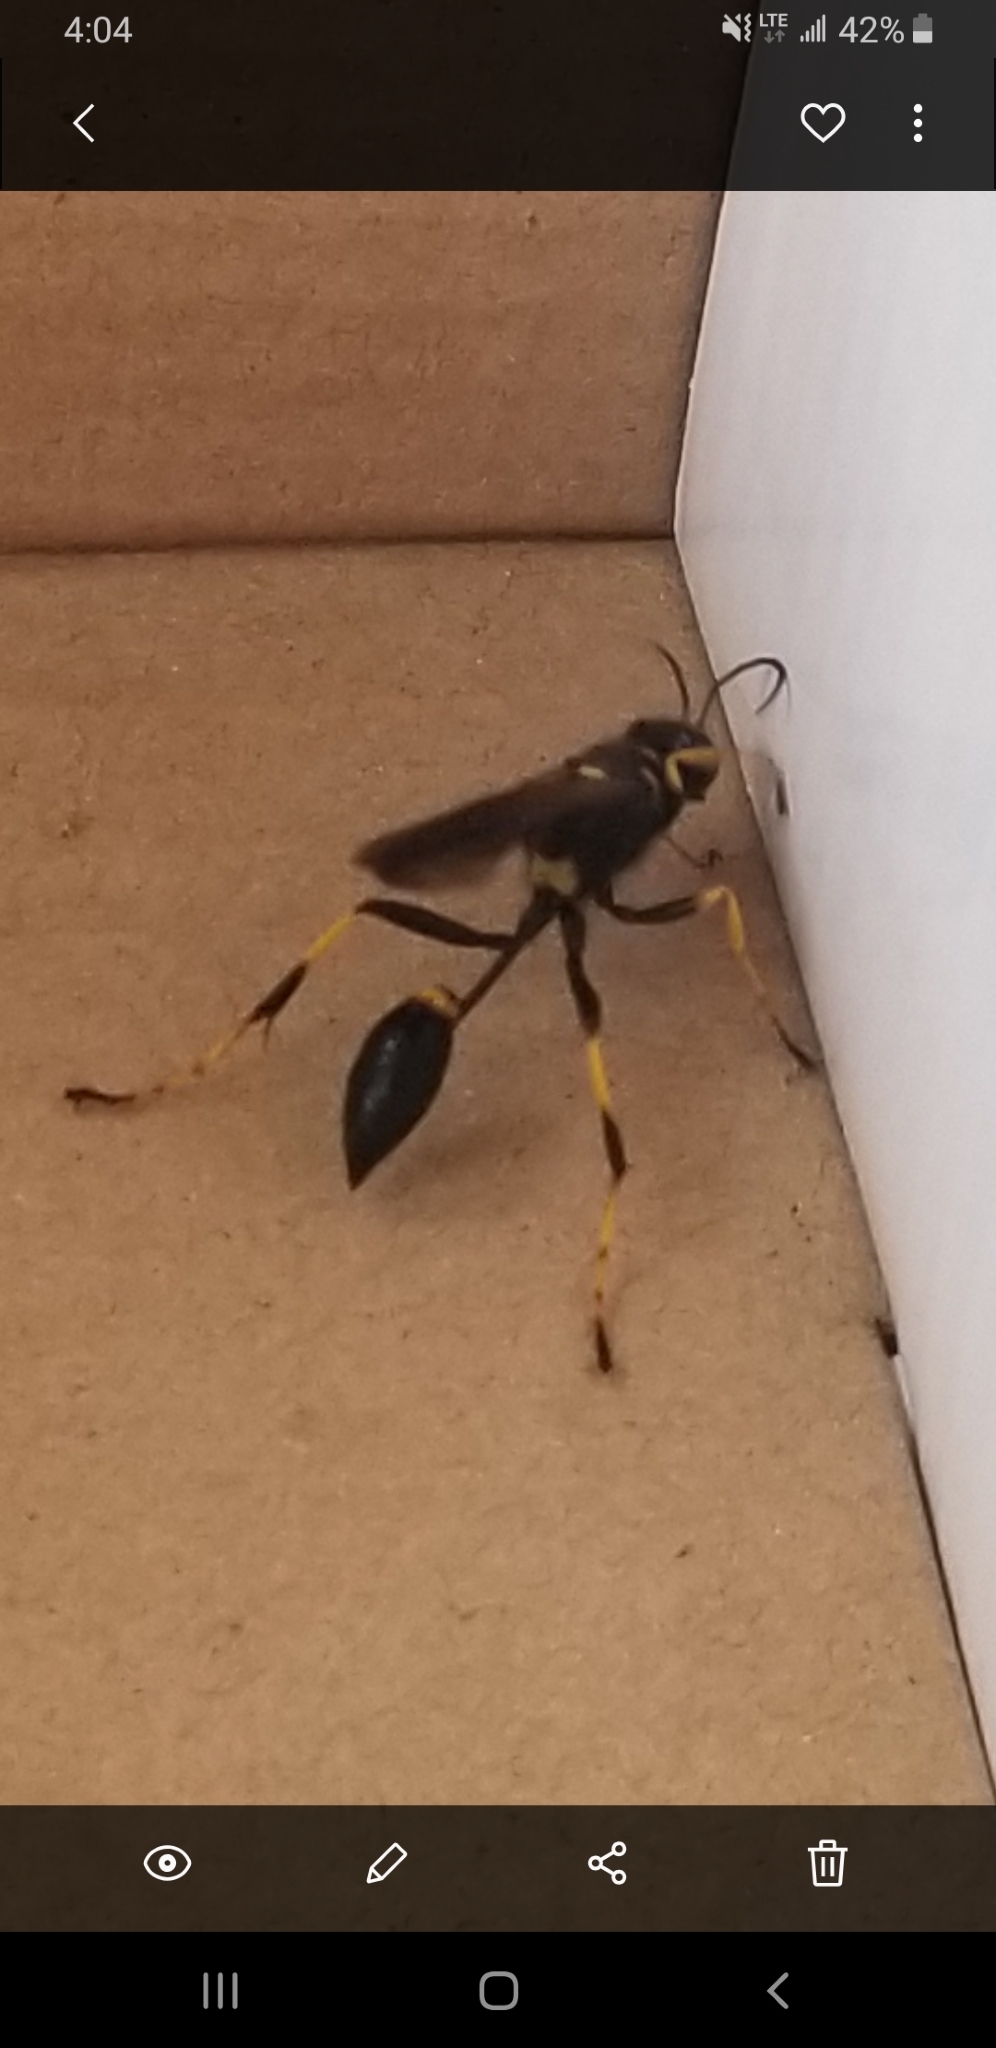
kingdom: Animalia
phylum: Arthropoda
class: Insecta
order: Hymenoptera
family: Sphecidae
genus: Sceliphron
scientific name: Sceliphron caementarium
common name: Mud dauber
